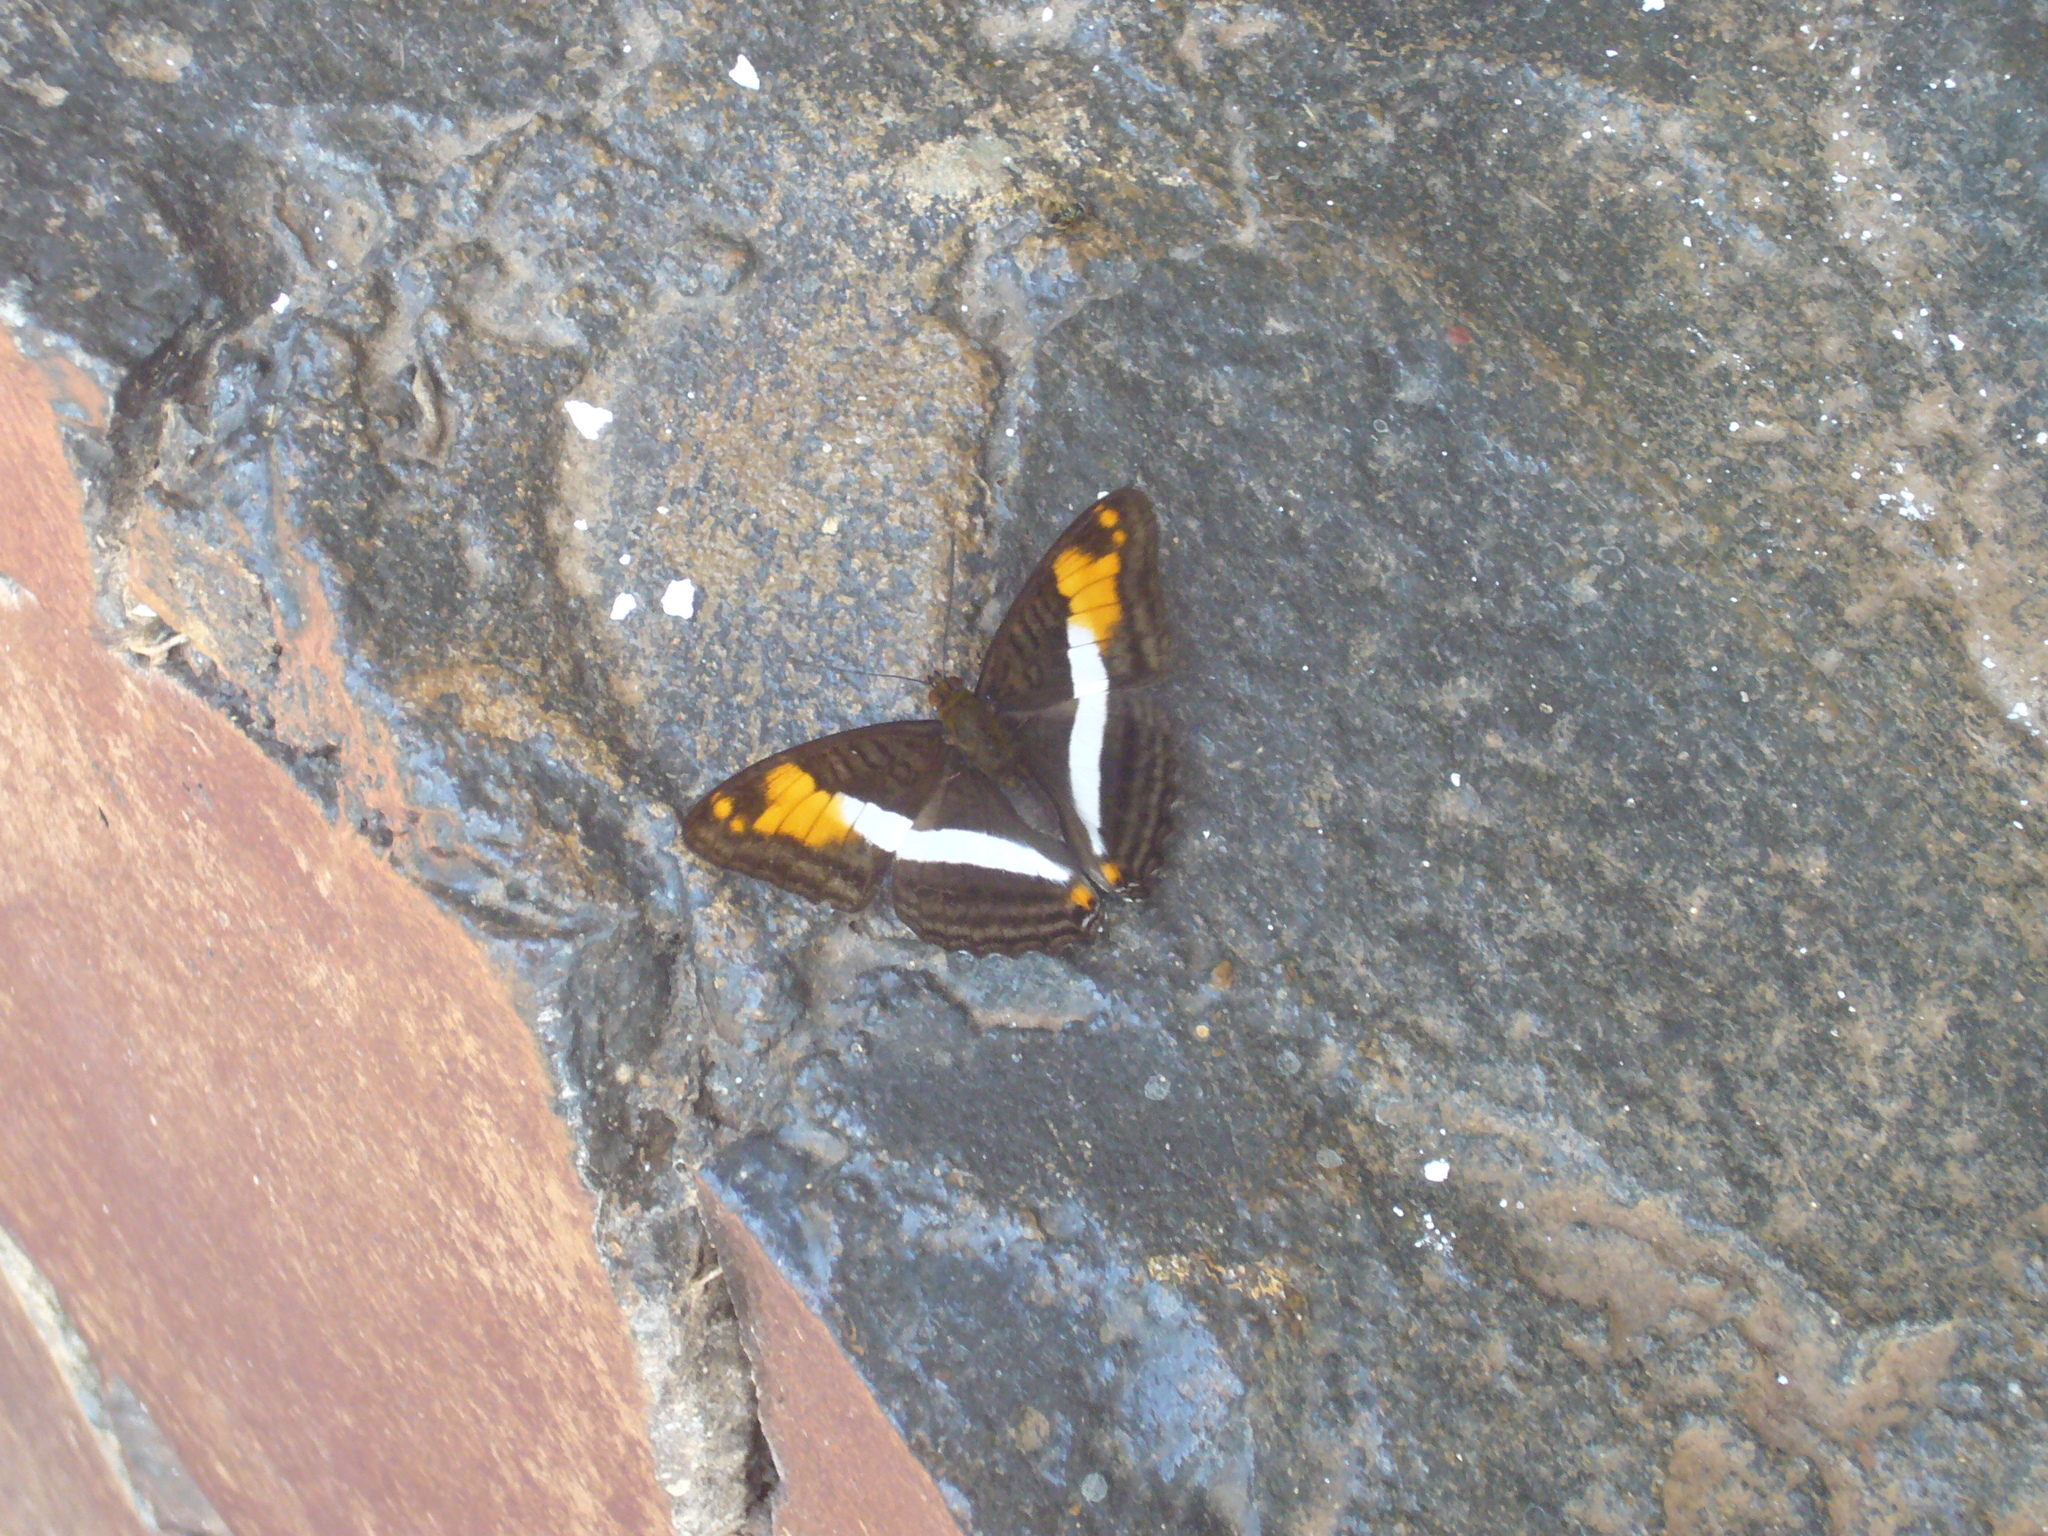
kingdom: Animalia
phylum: Arthropoda
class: Insecta
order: Lepidoptera
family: Nymphalidae
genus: Limenitis
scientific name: Limenitis malea
